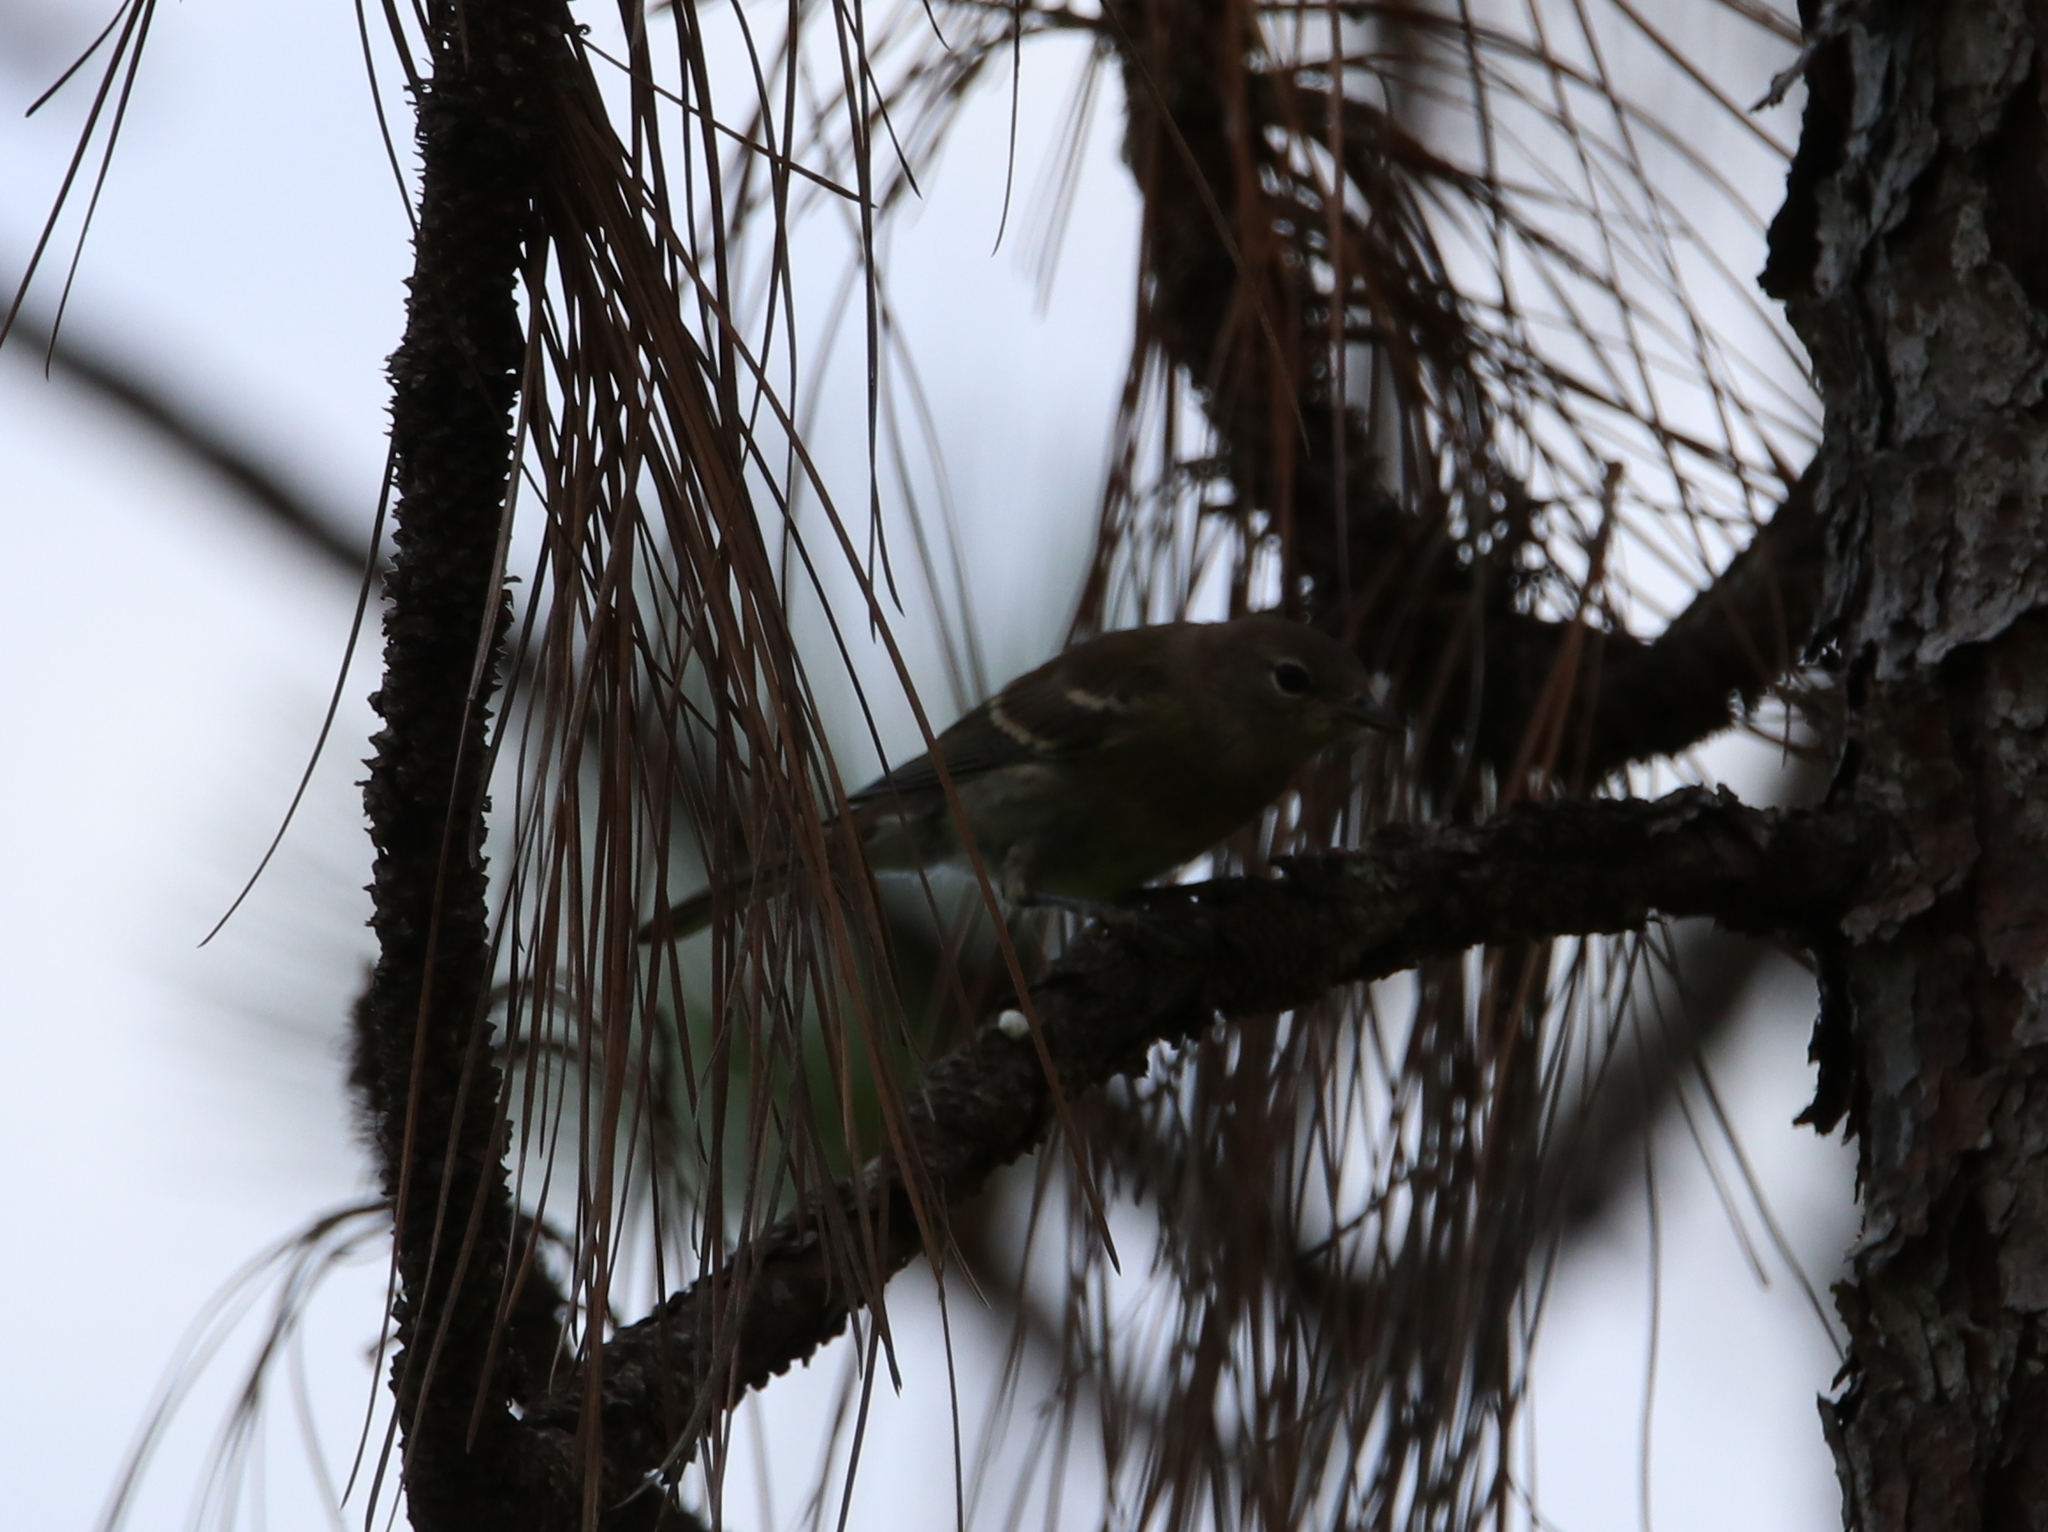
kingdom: Animalia
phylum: Chordata
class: Aves
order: Passeriformes
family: Parulidae
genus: Setophaga
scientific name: Setophaga pinus
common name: Pine warbler
